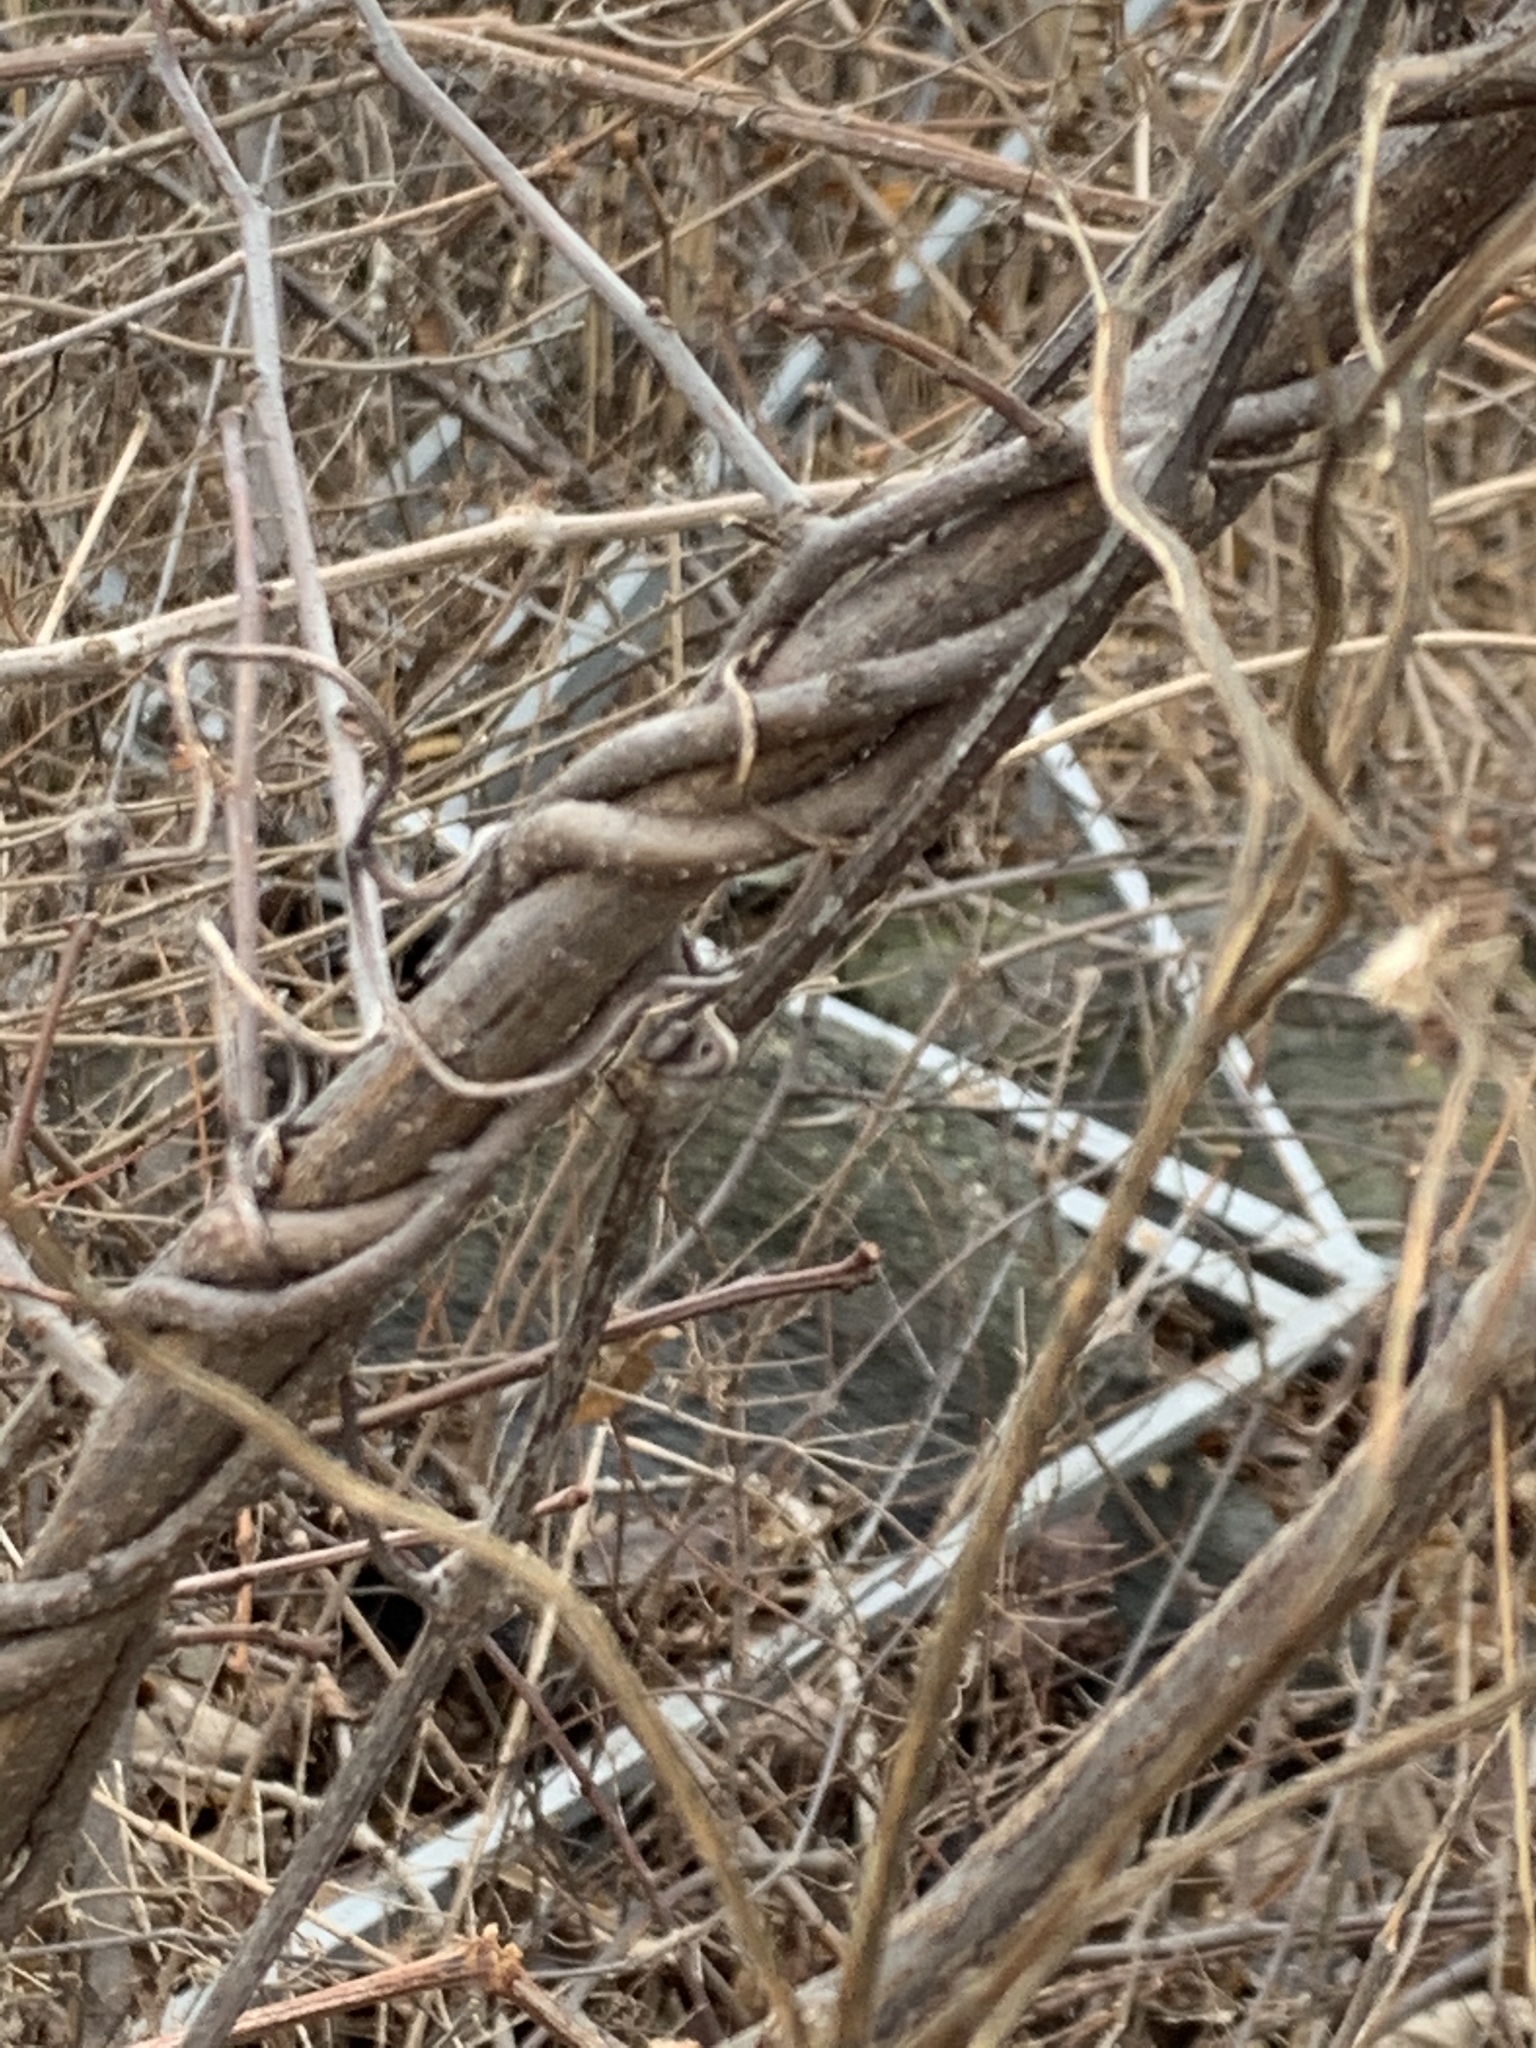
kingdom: Plantae
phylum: Tracheophyta
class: Magnoliopsida
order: Celastrales
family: Celastraceae
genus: Celastrus
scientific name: Celastrus orbiculatus
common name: Oriental bittersweet
